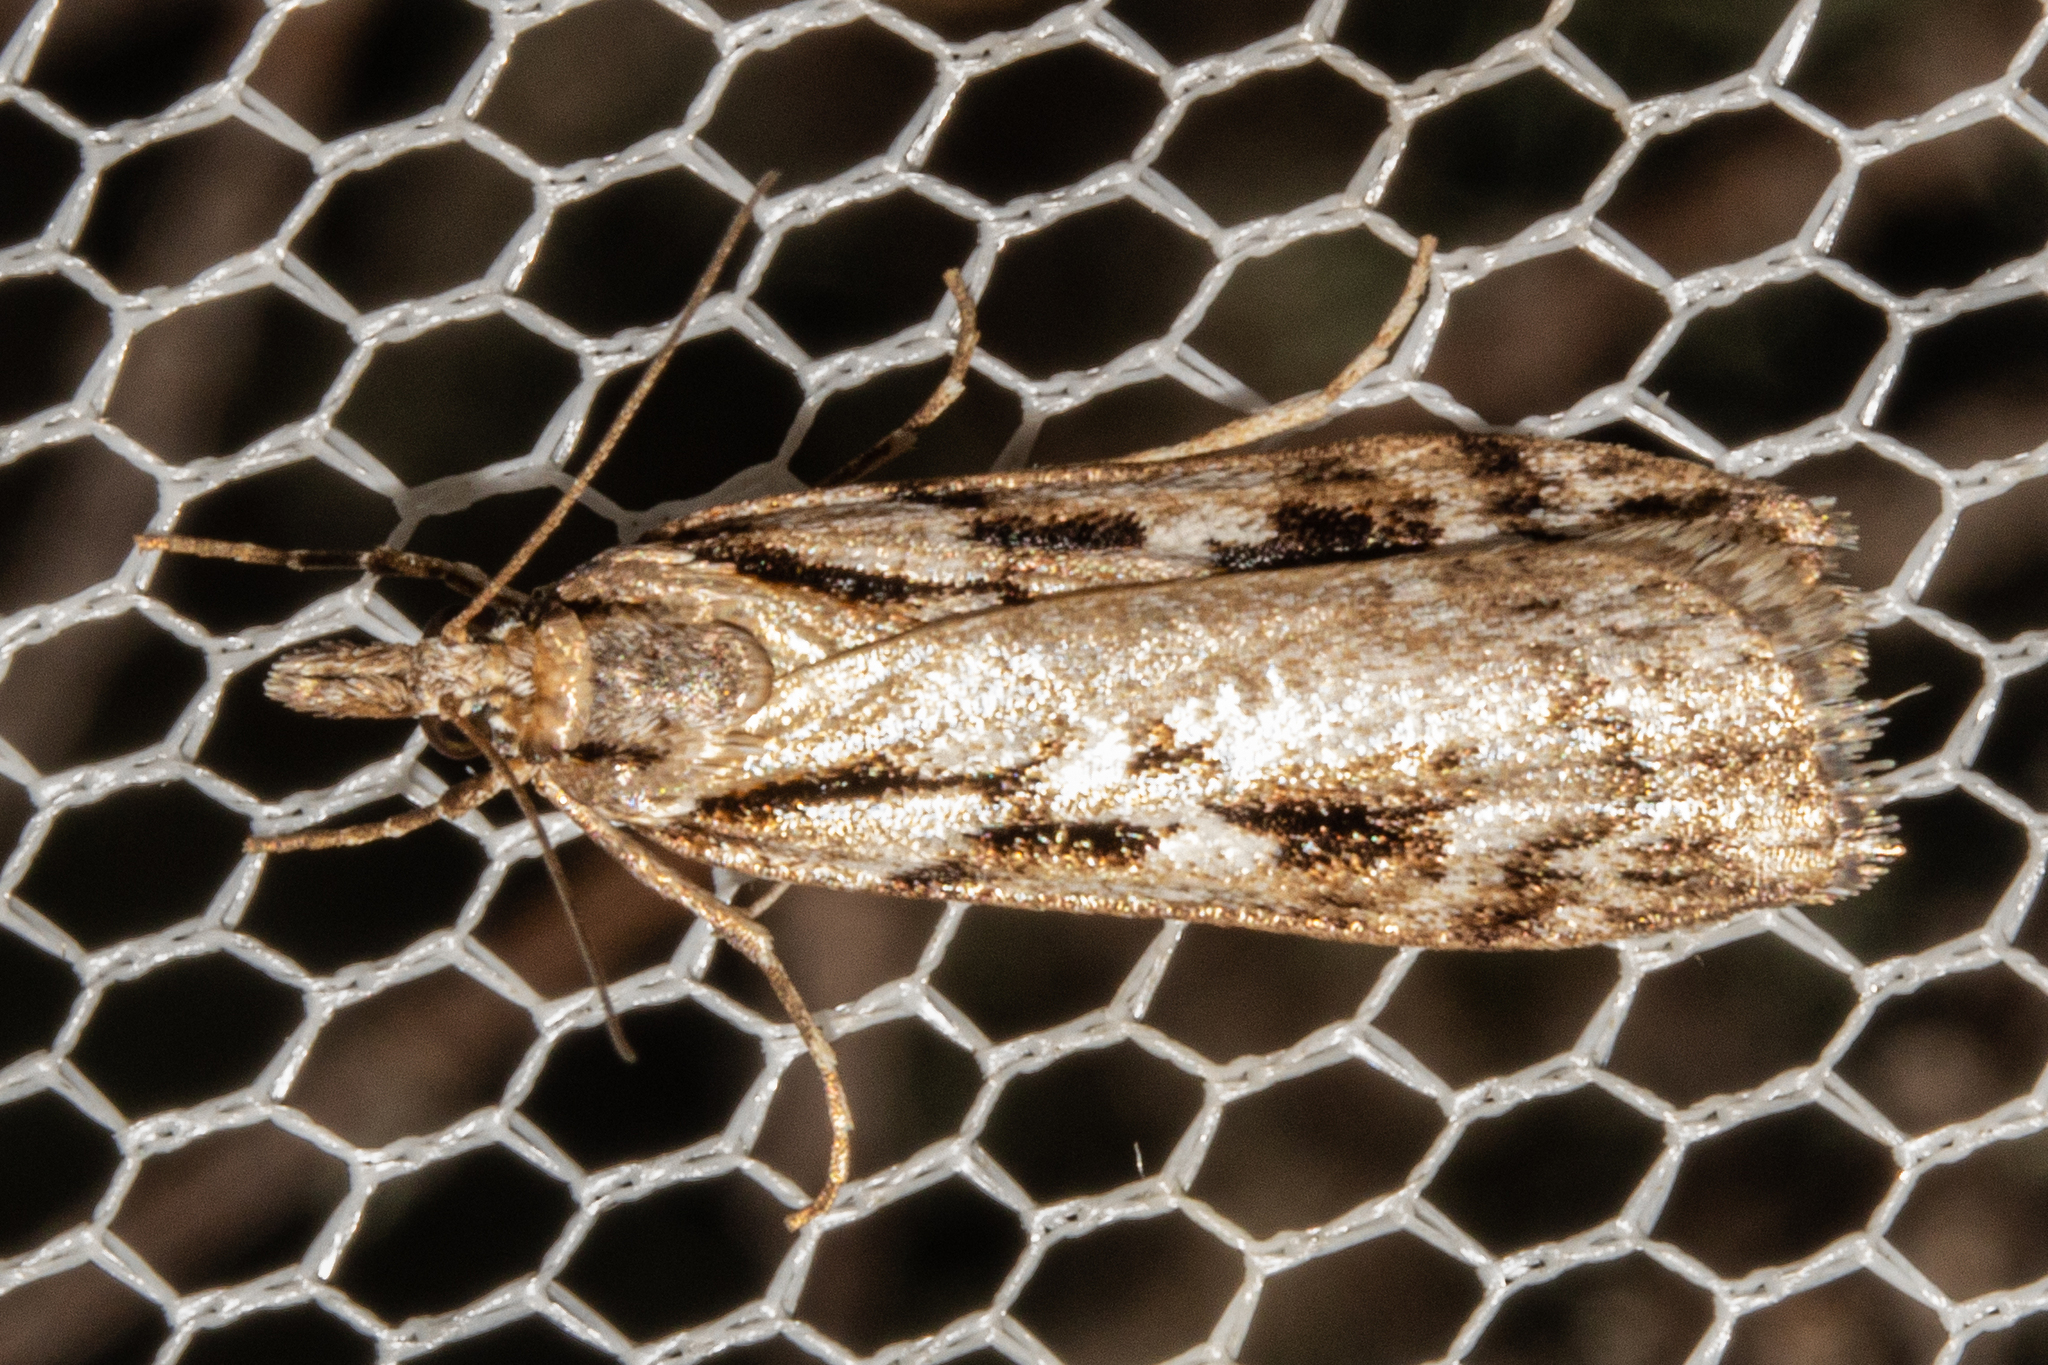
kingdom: Animalia
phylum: Arthropoda
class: Insecta
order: Lepidoptera
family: Crambidae
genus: Scoparia
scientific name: Scoparia astragalota
